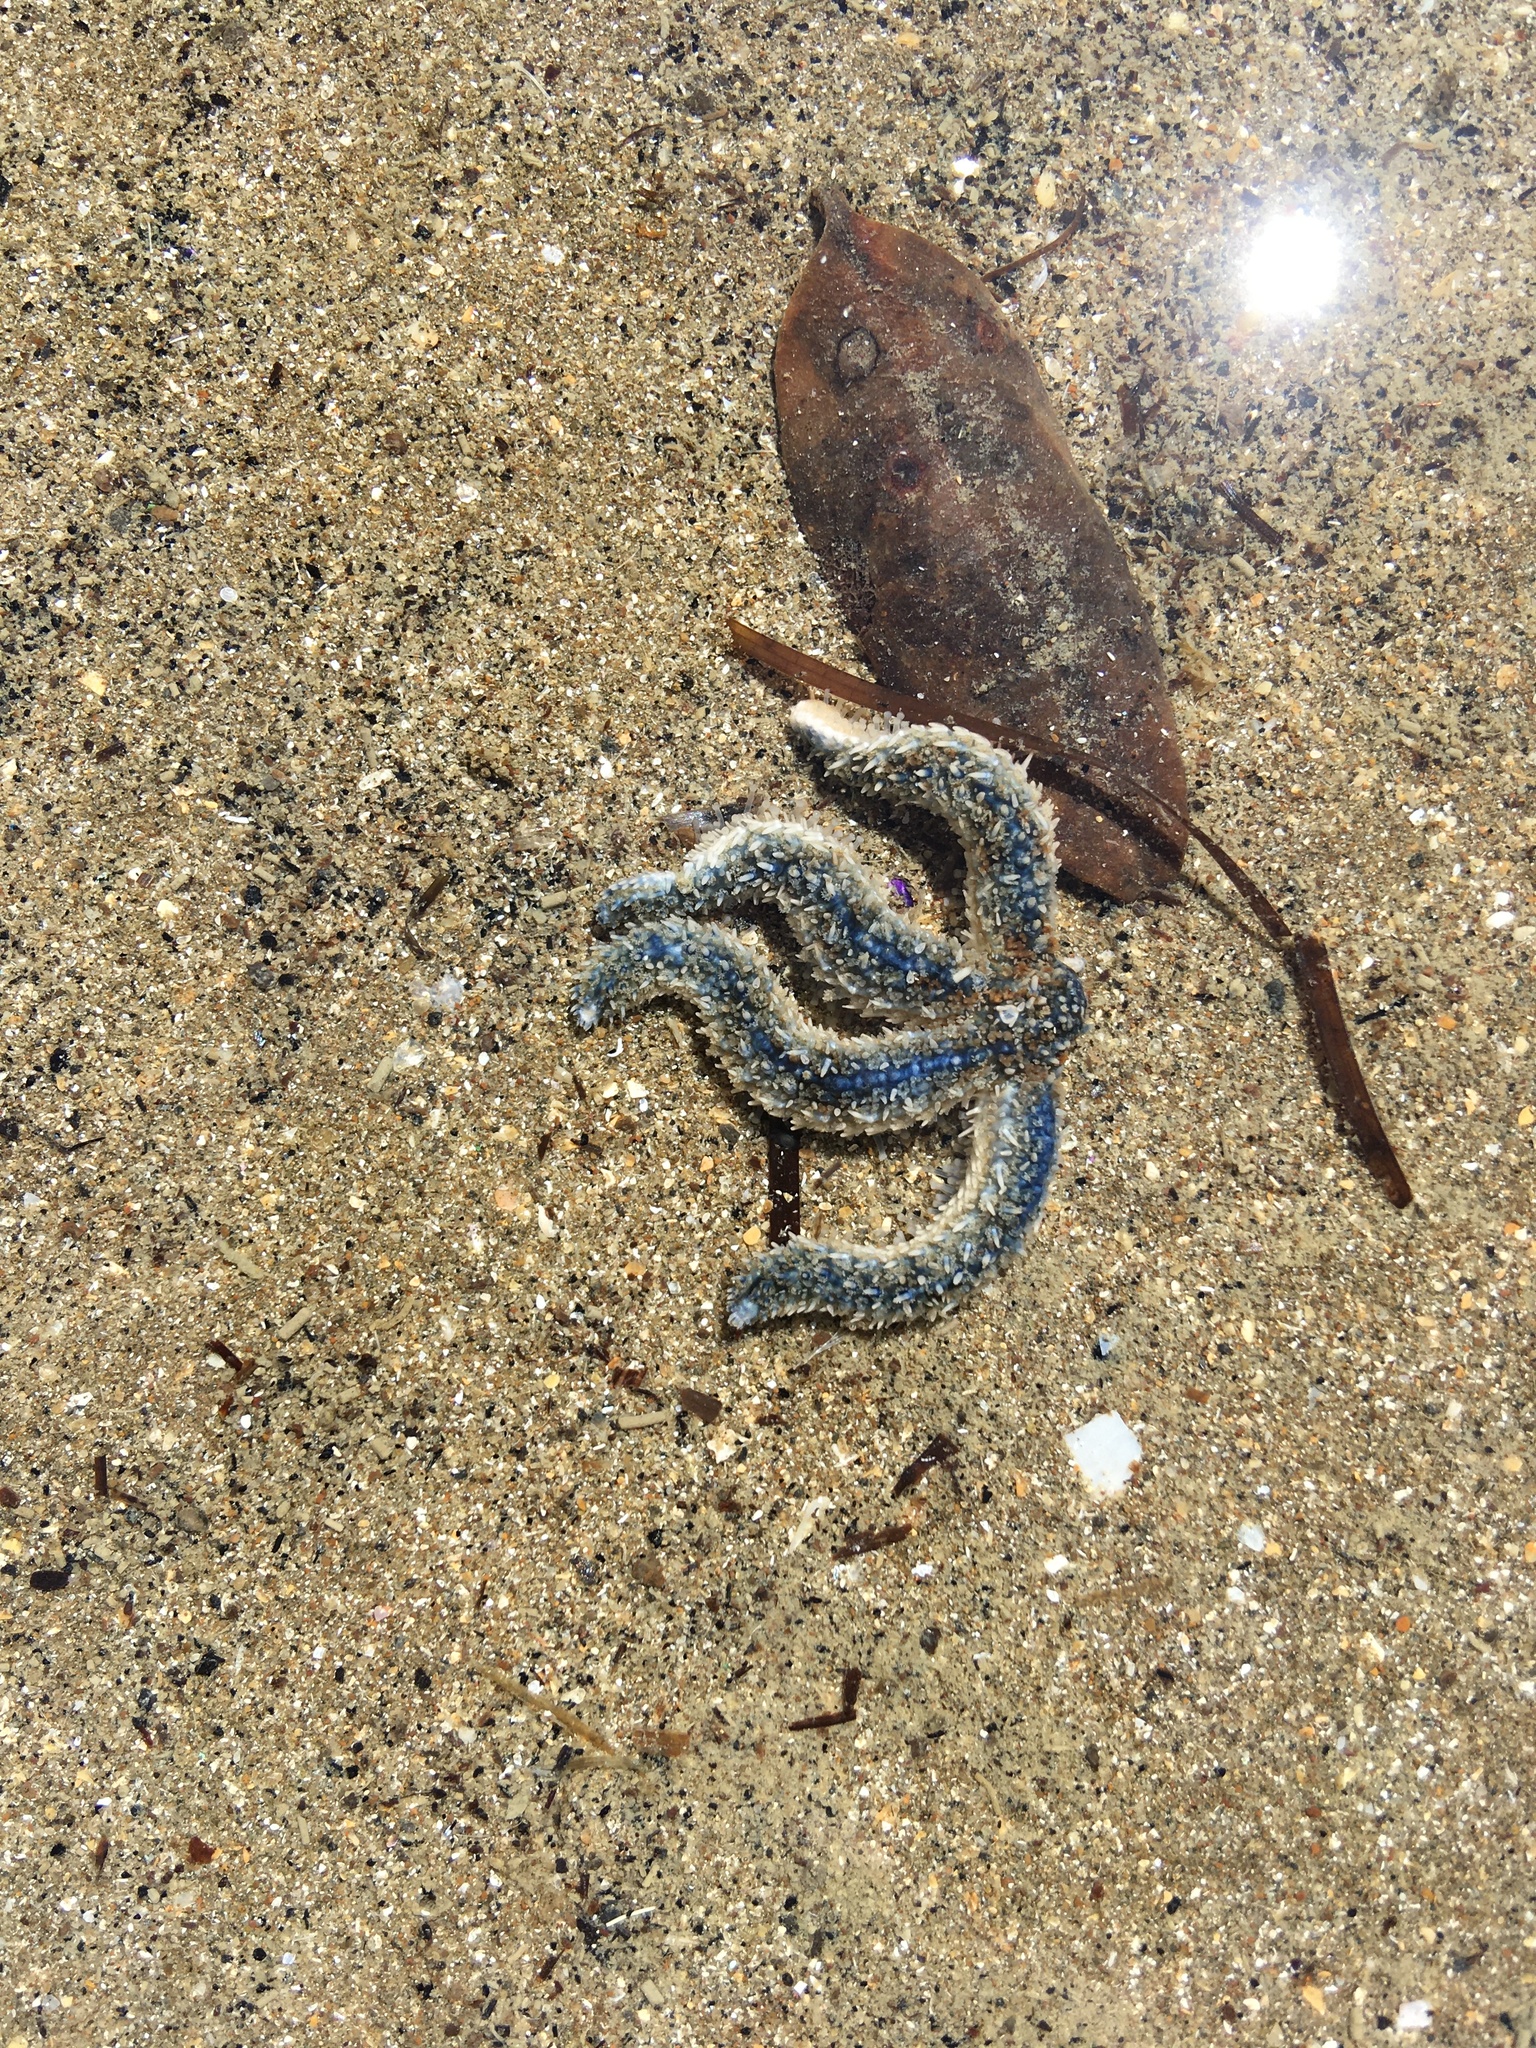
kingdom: Animalia
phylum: Echinodermata
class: Asteroidea
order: Forcipulatida
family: Asteriidae
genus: Coscinasterias
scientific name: Coscinasterias muricata
